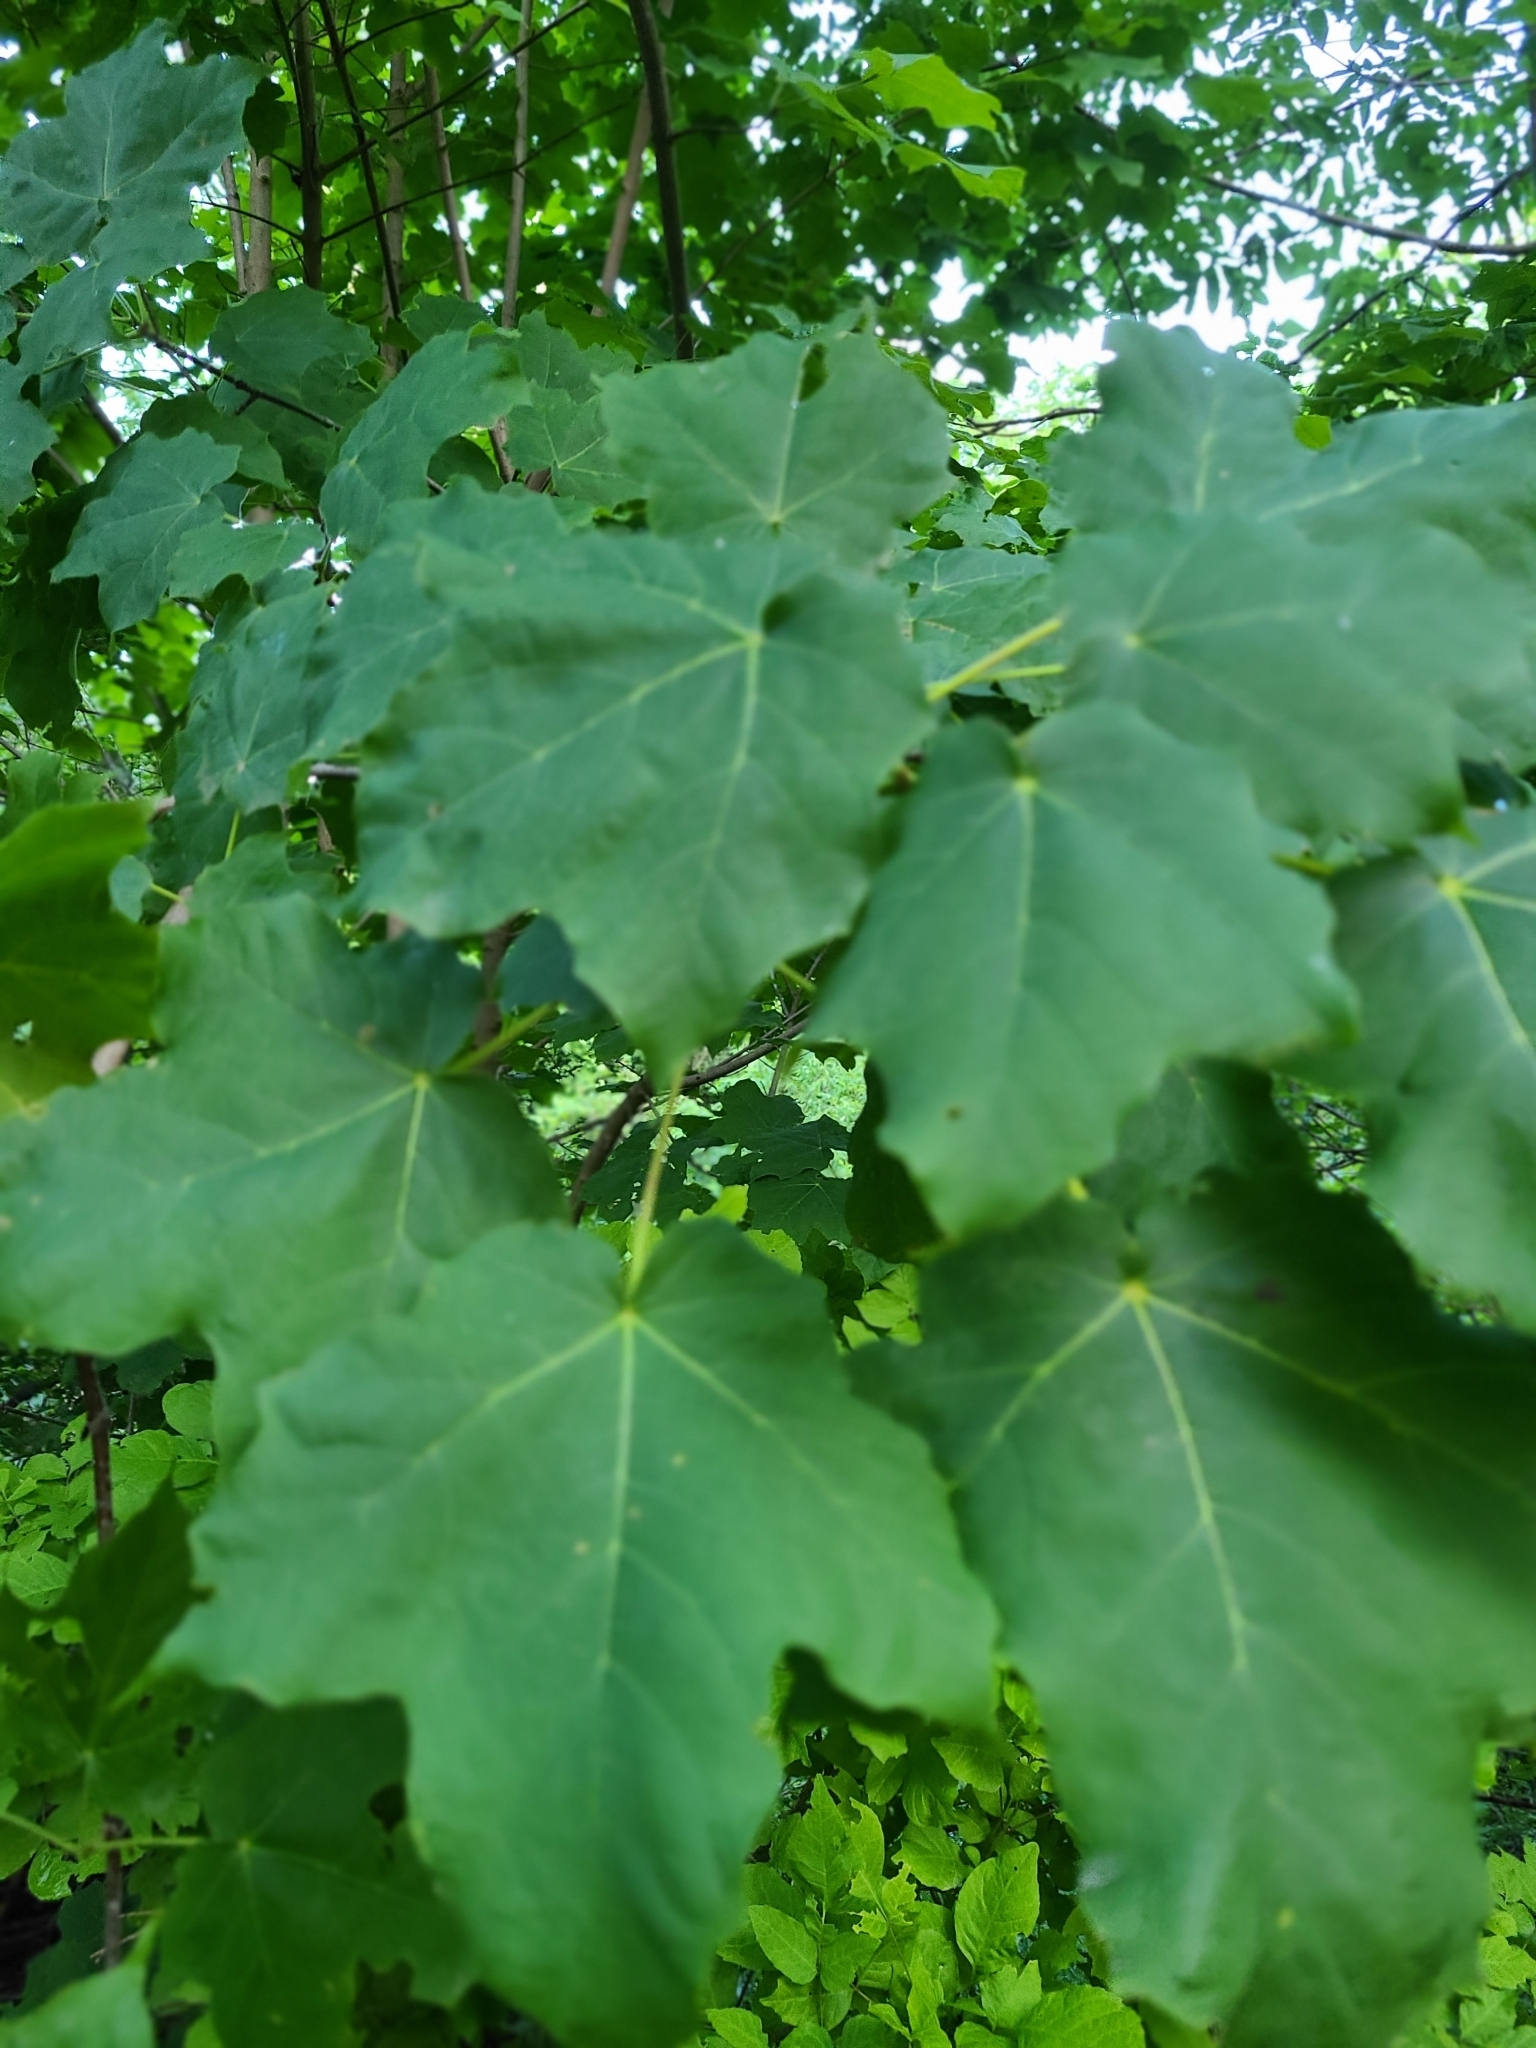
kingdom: Plantae
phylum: Tracheophyta
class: Magnoliopsida
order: Sapindales
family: Sapindaceae
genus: Acer
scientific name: Acer nigrum
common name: Black maple
